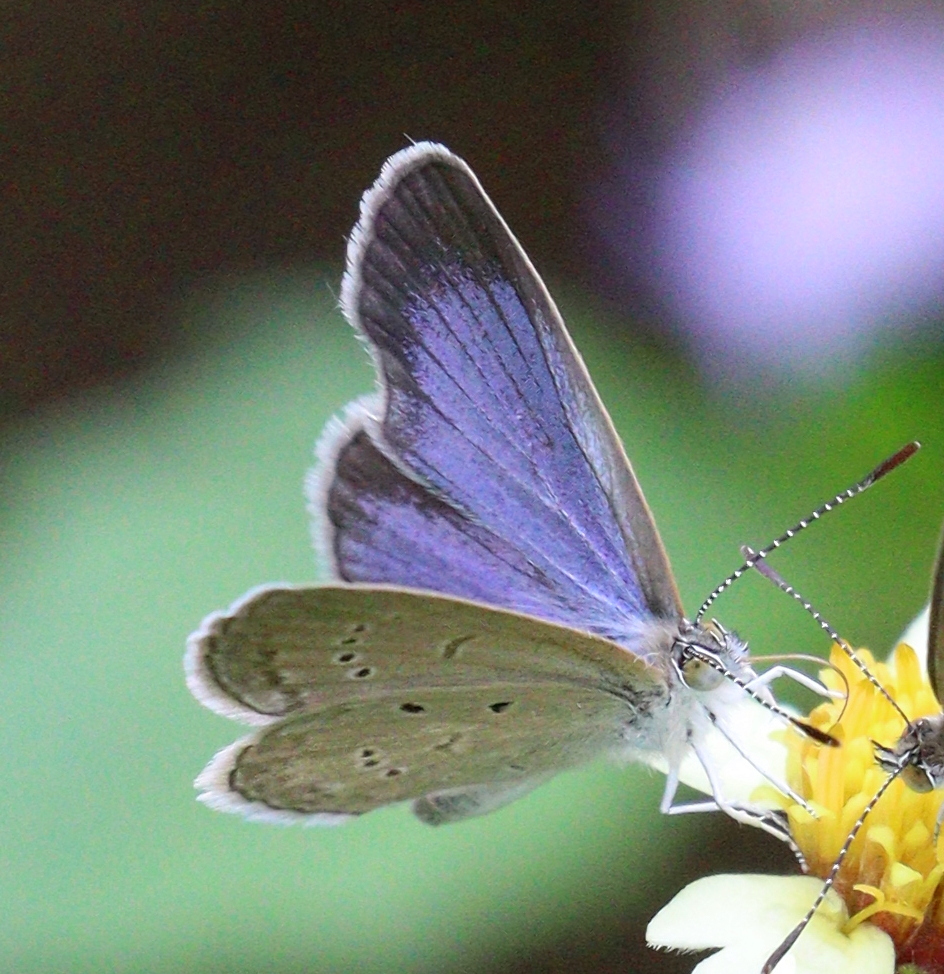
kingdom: Animalia
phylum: Arthropoda
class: Insecta
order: Lepidoptera
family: Lycaenidae
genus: Zizina
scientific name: Zizina otis
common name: Lesser grass blue
